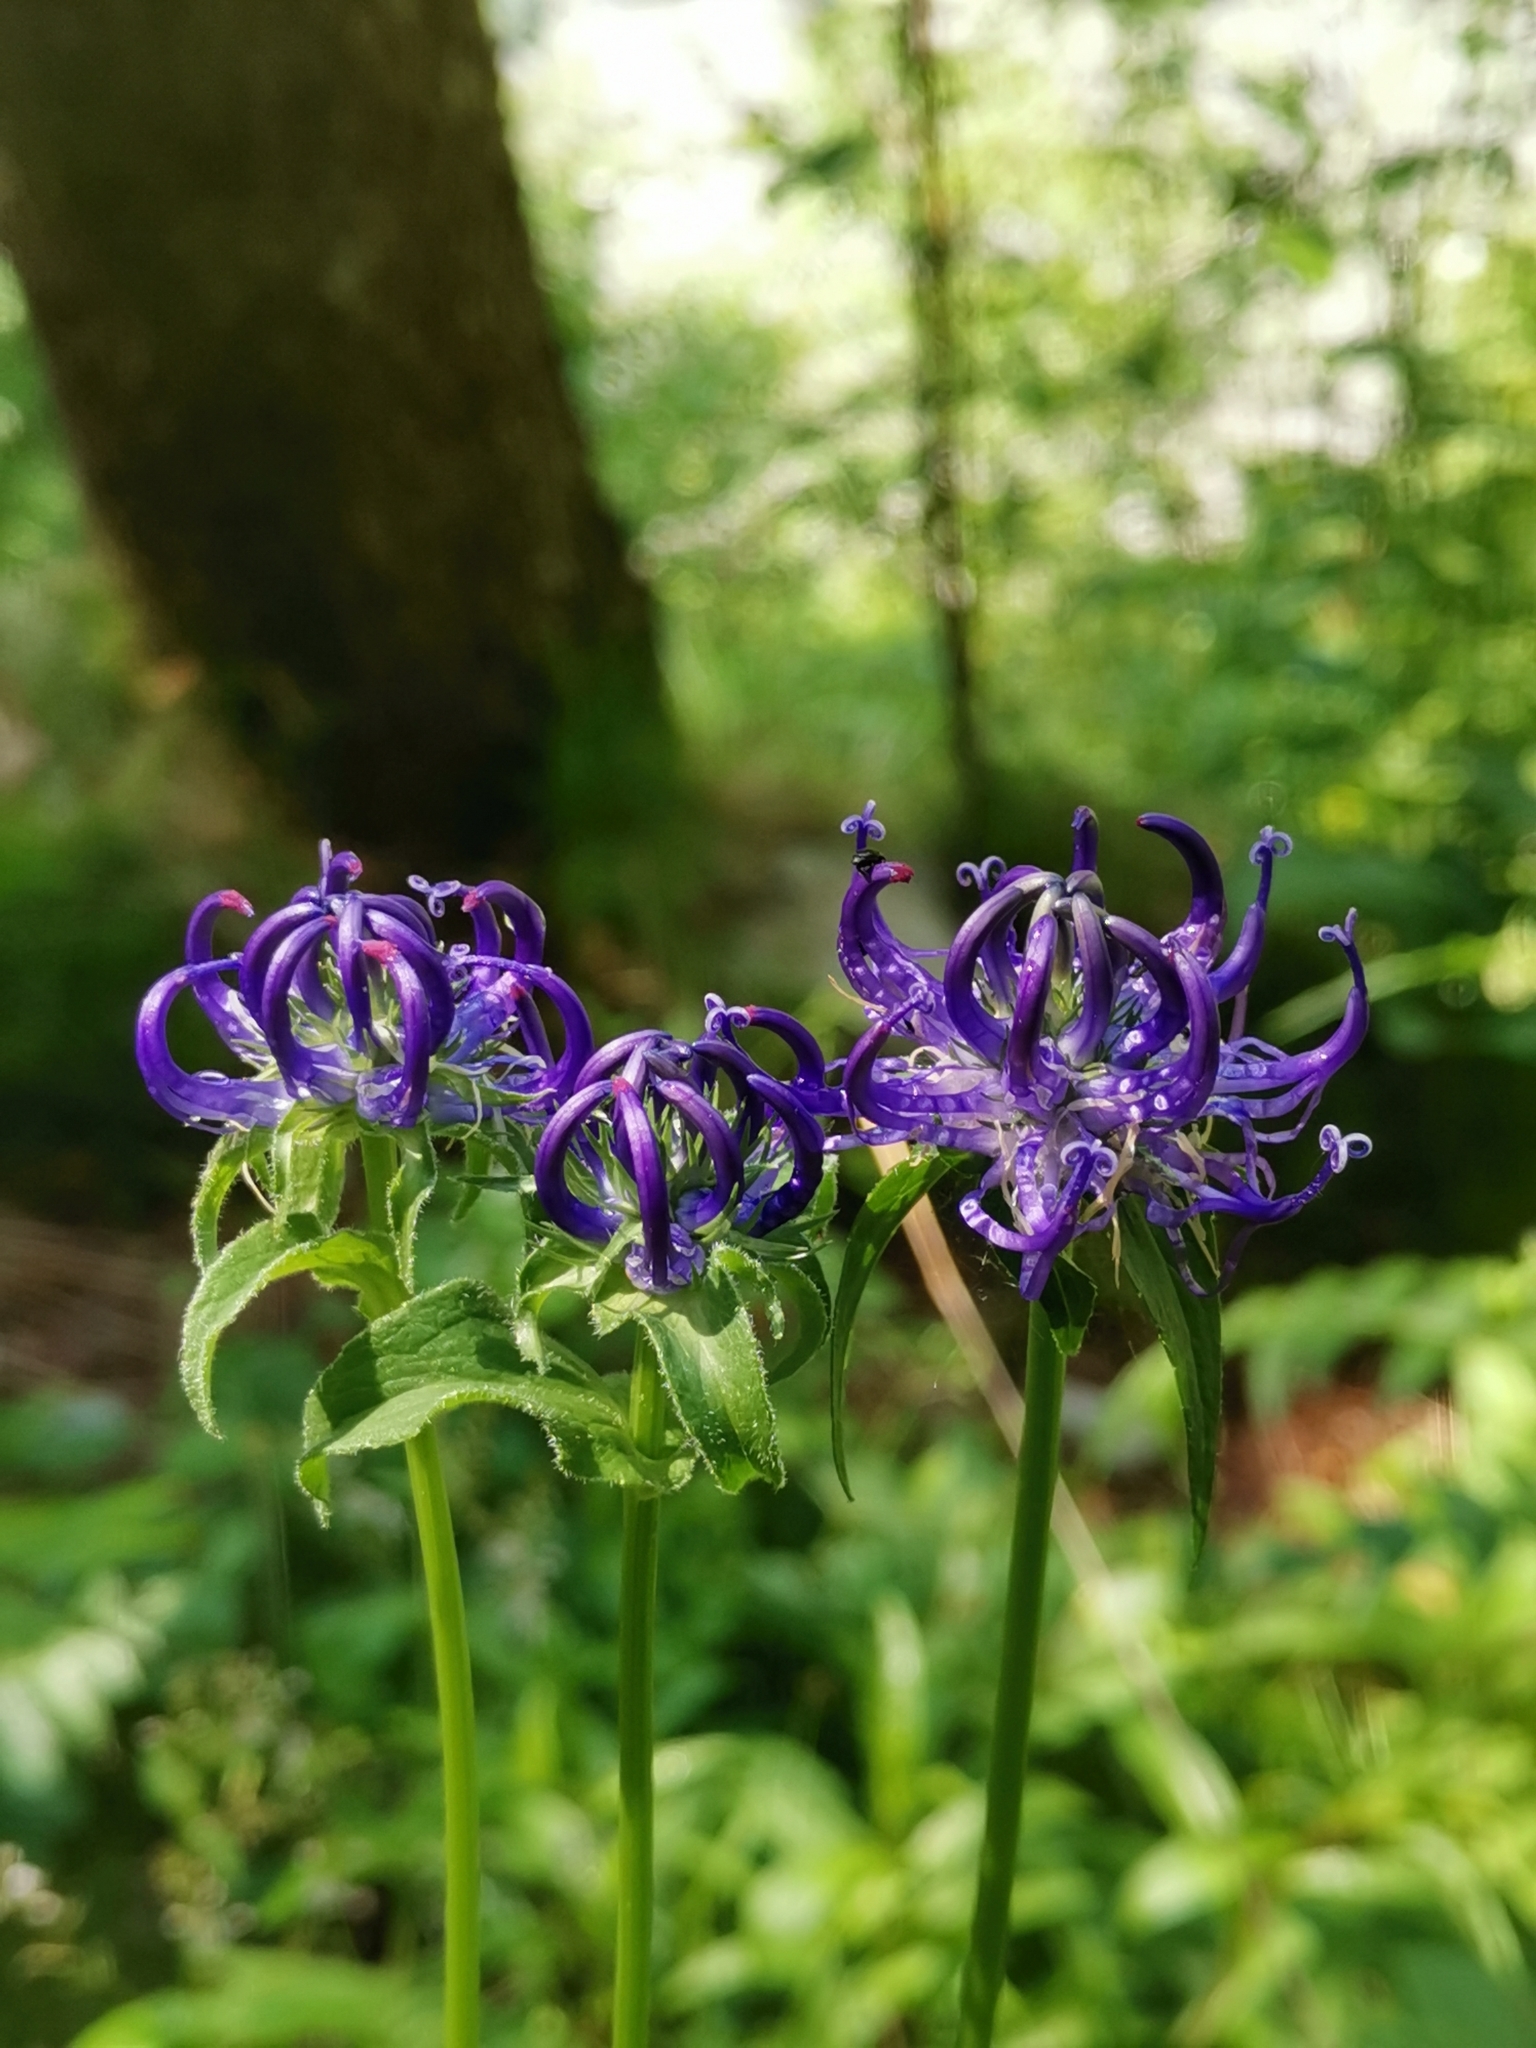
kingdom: Plantae
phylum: Tracheophyta
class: Magnoliopsida
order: Asterales
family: Campanulaceae
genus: Phyteuma
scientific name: Phyteuma orbiculare
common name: Round-headed rampion
